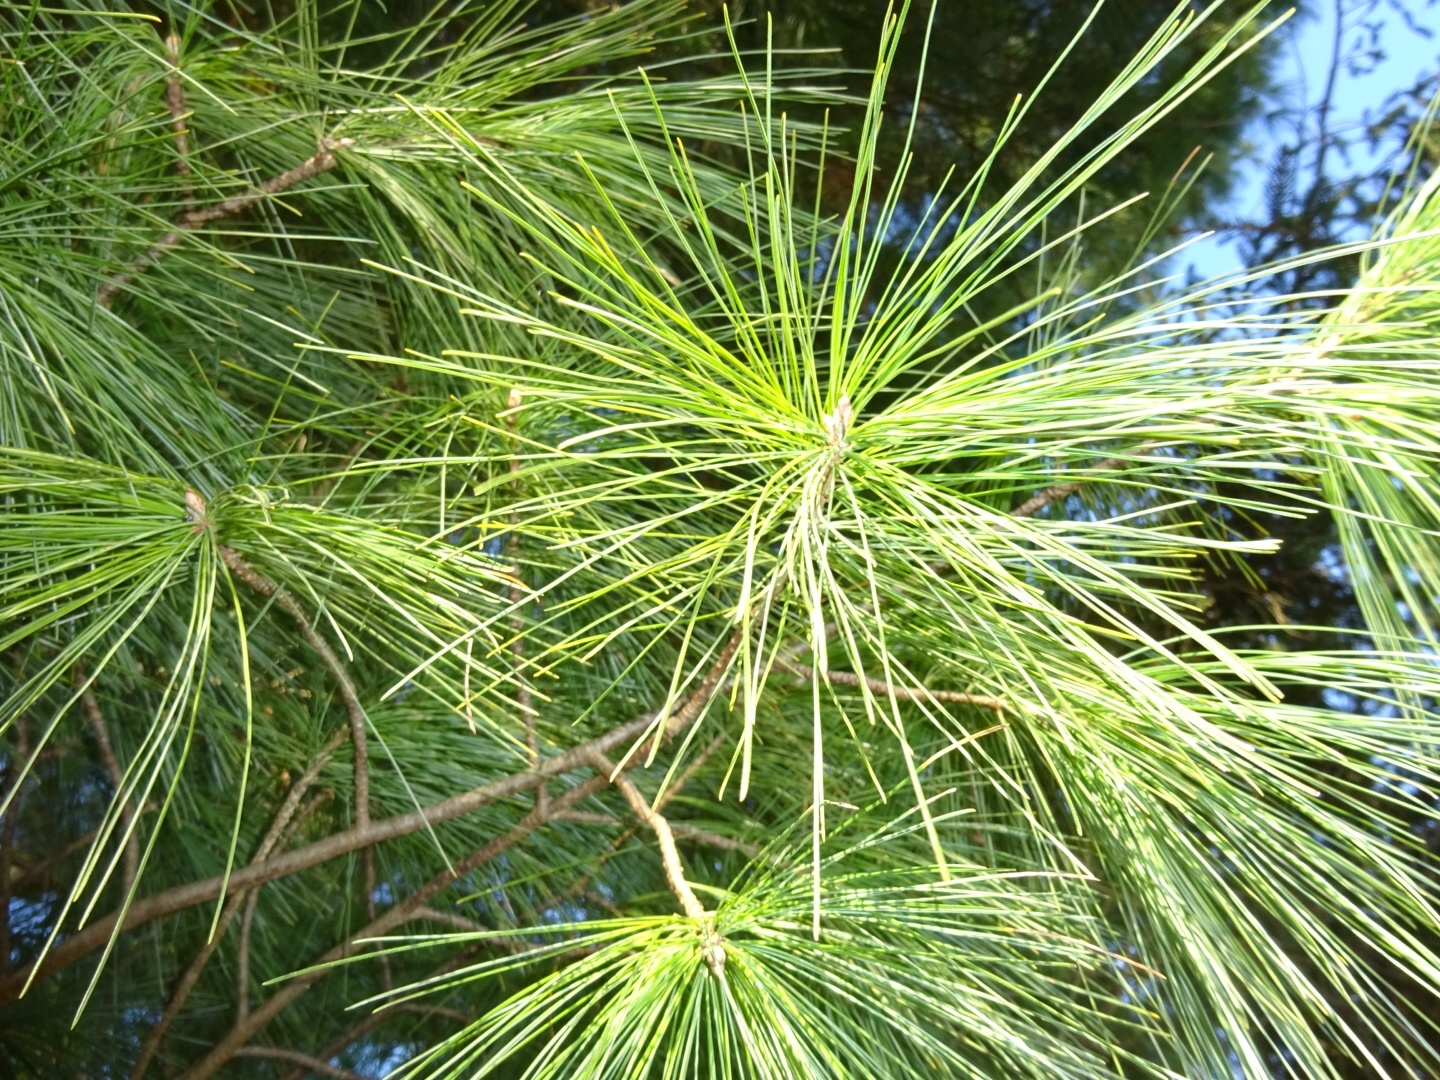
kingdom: Plantae
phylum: Tracheophyta
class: Pinopsida
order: Pinales
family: Pinaceae
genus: Pinus
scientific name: Pinus strobus
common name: Weymouth pine
